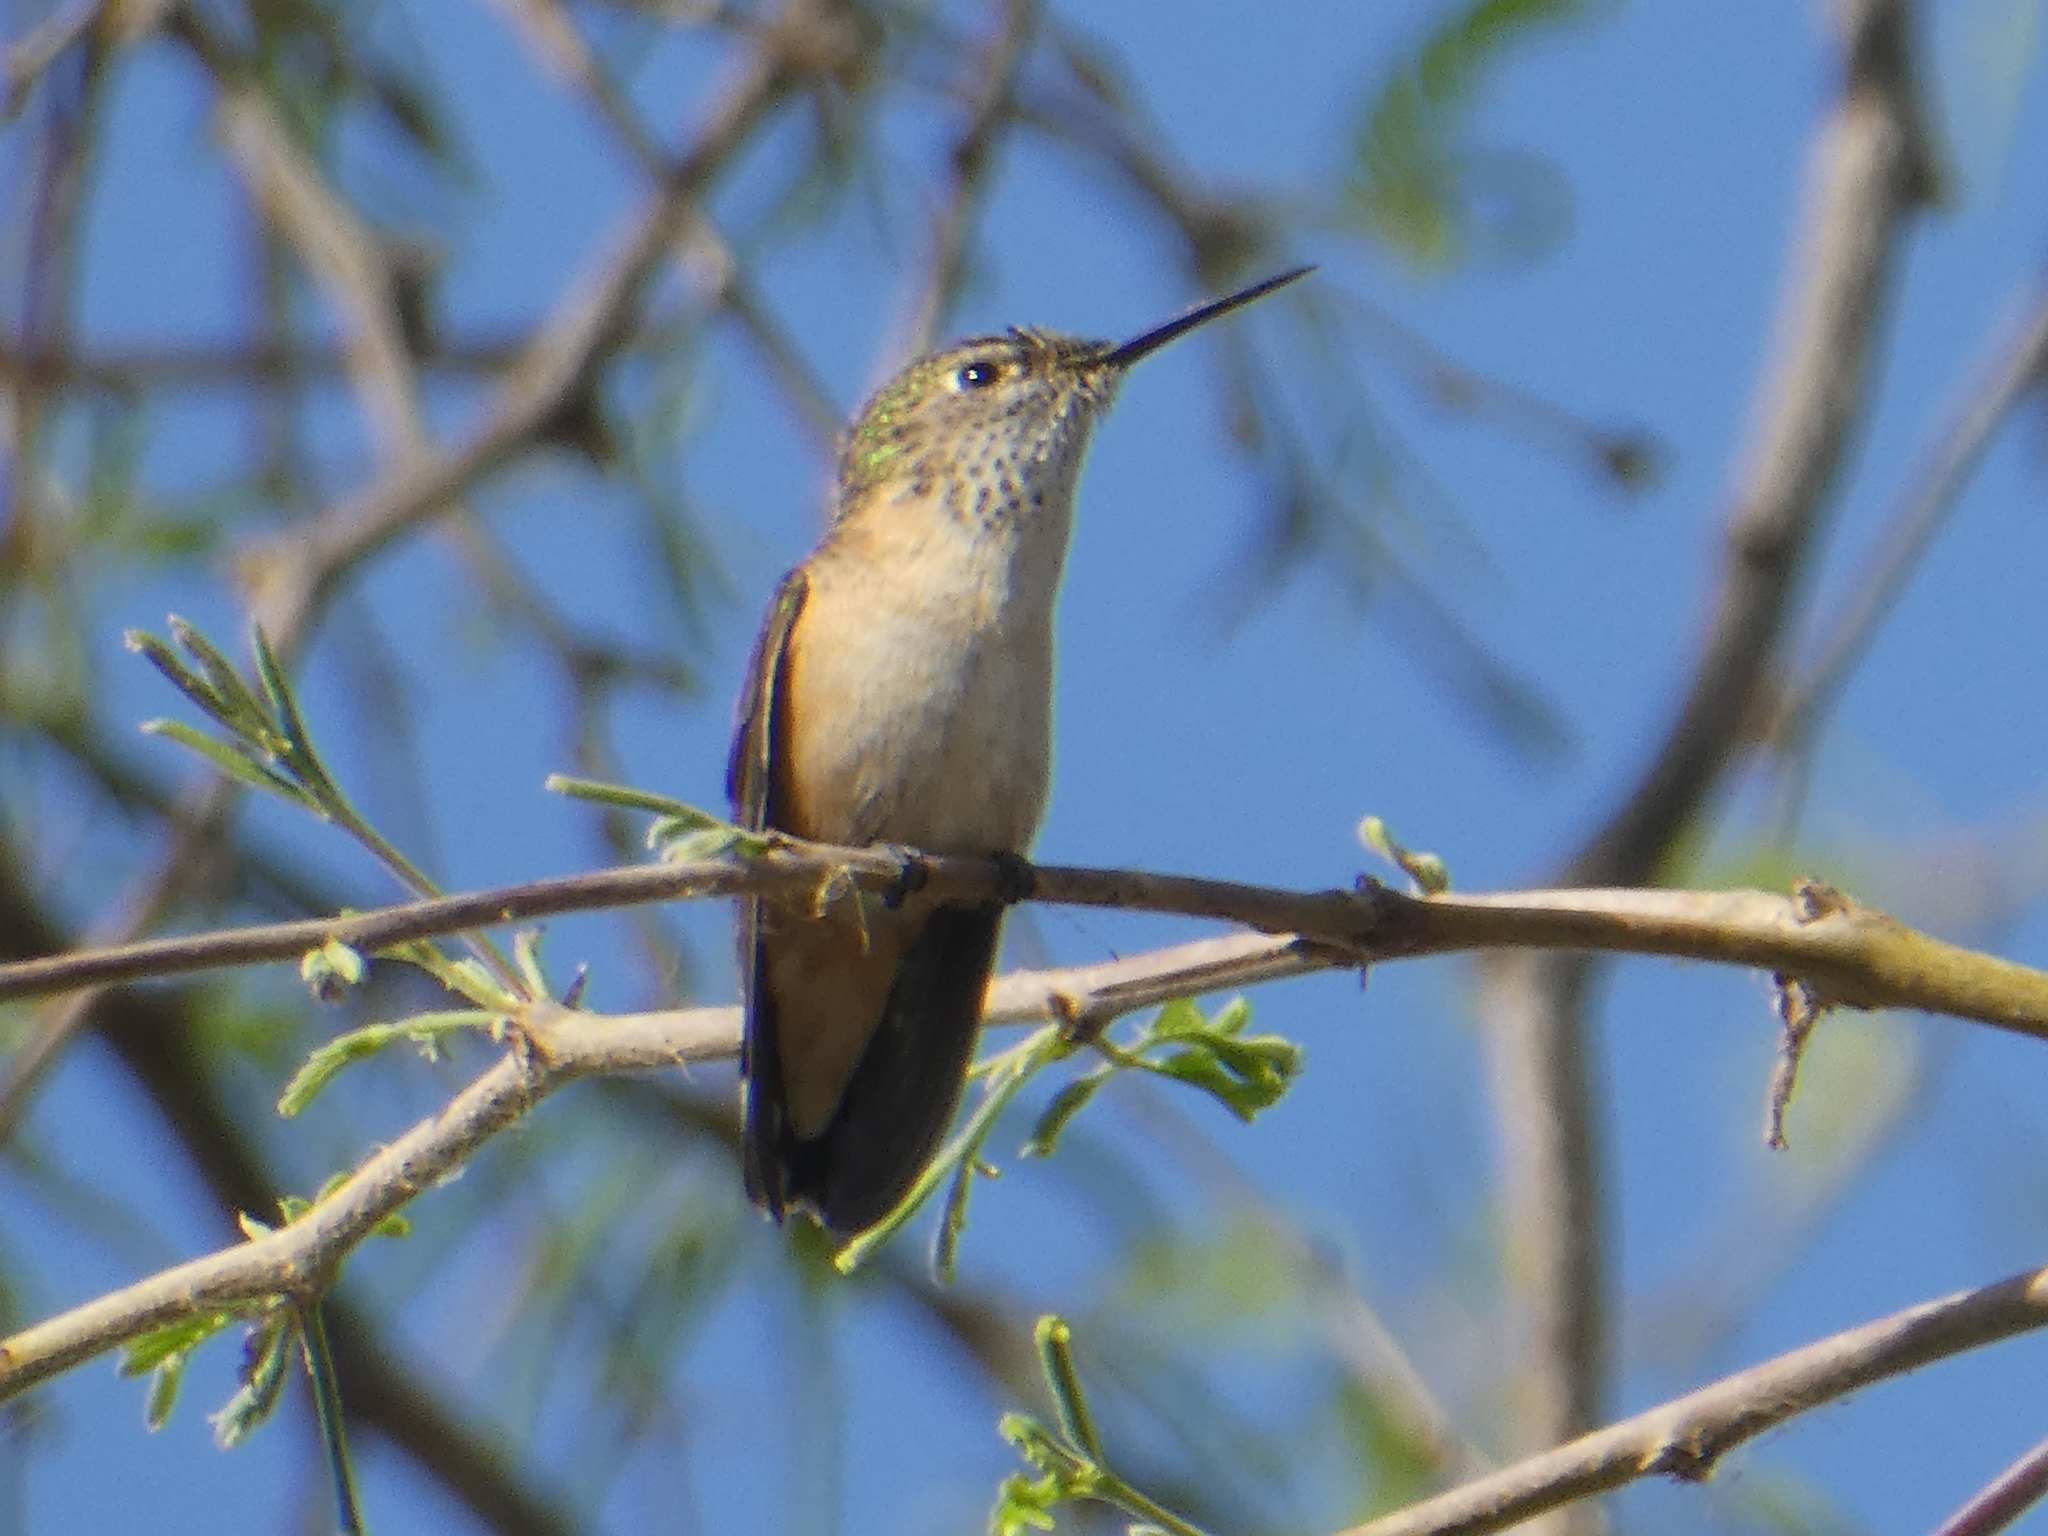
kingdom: Animalia
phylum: Chordata
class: Aves
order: Apodiformes
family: Trochilidae
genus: Selasphorus
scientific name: Selasphorus calliope
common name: Calliope hummingbird
